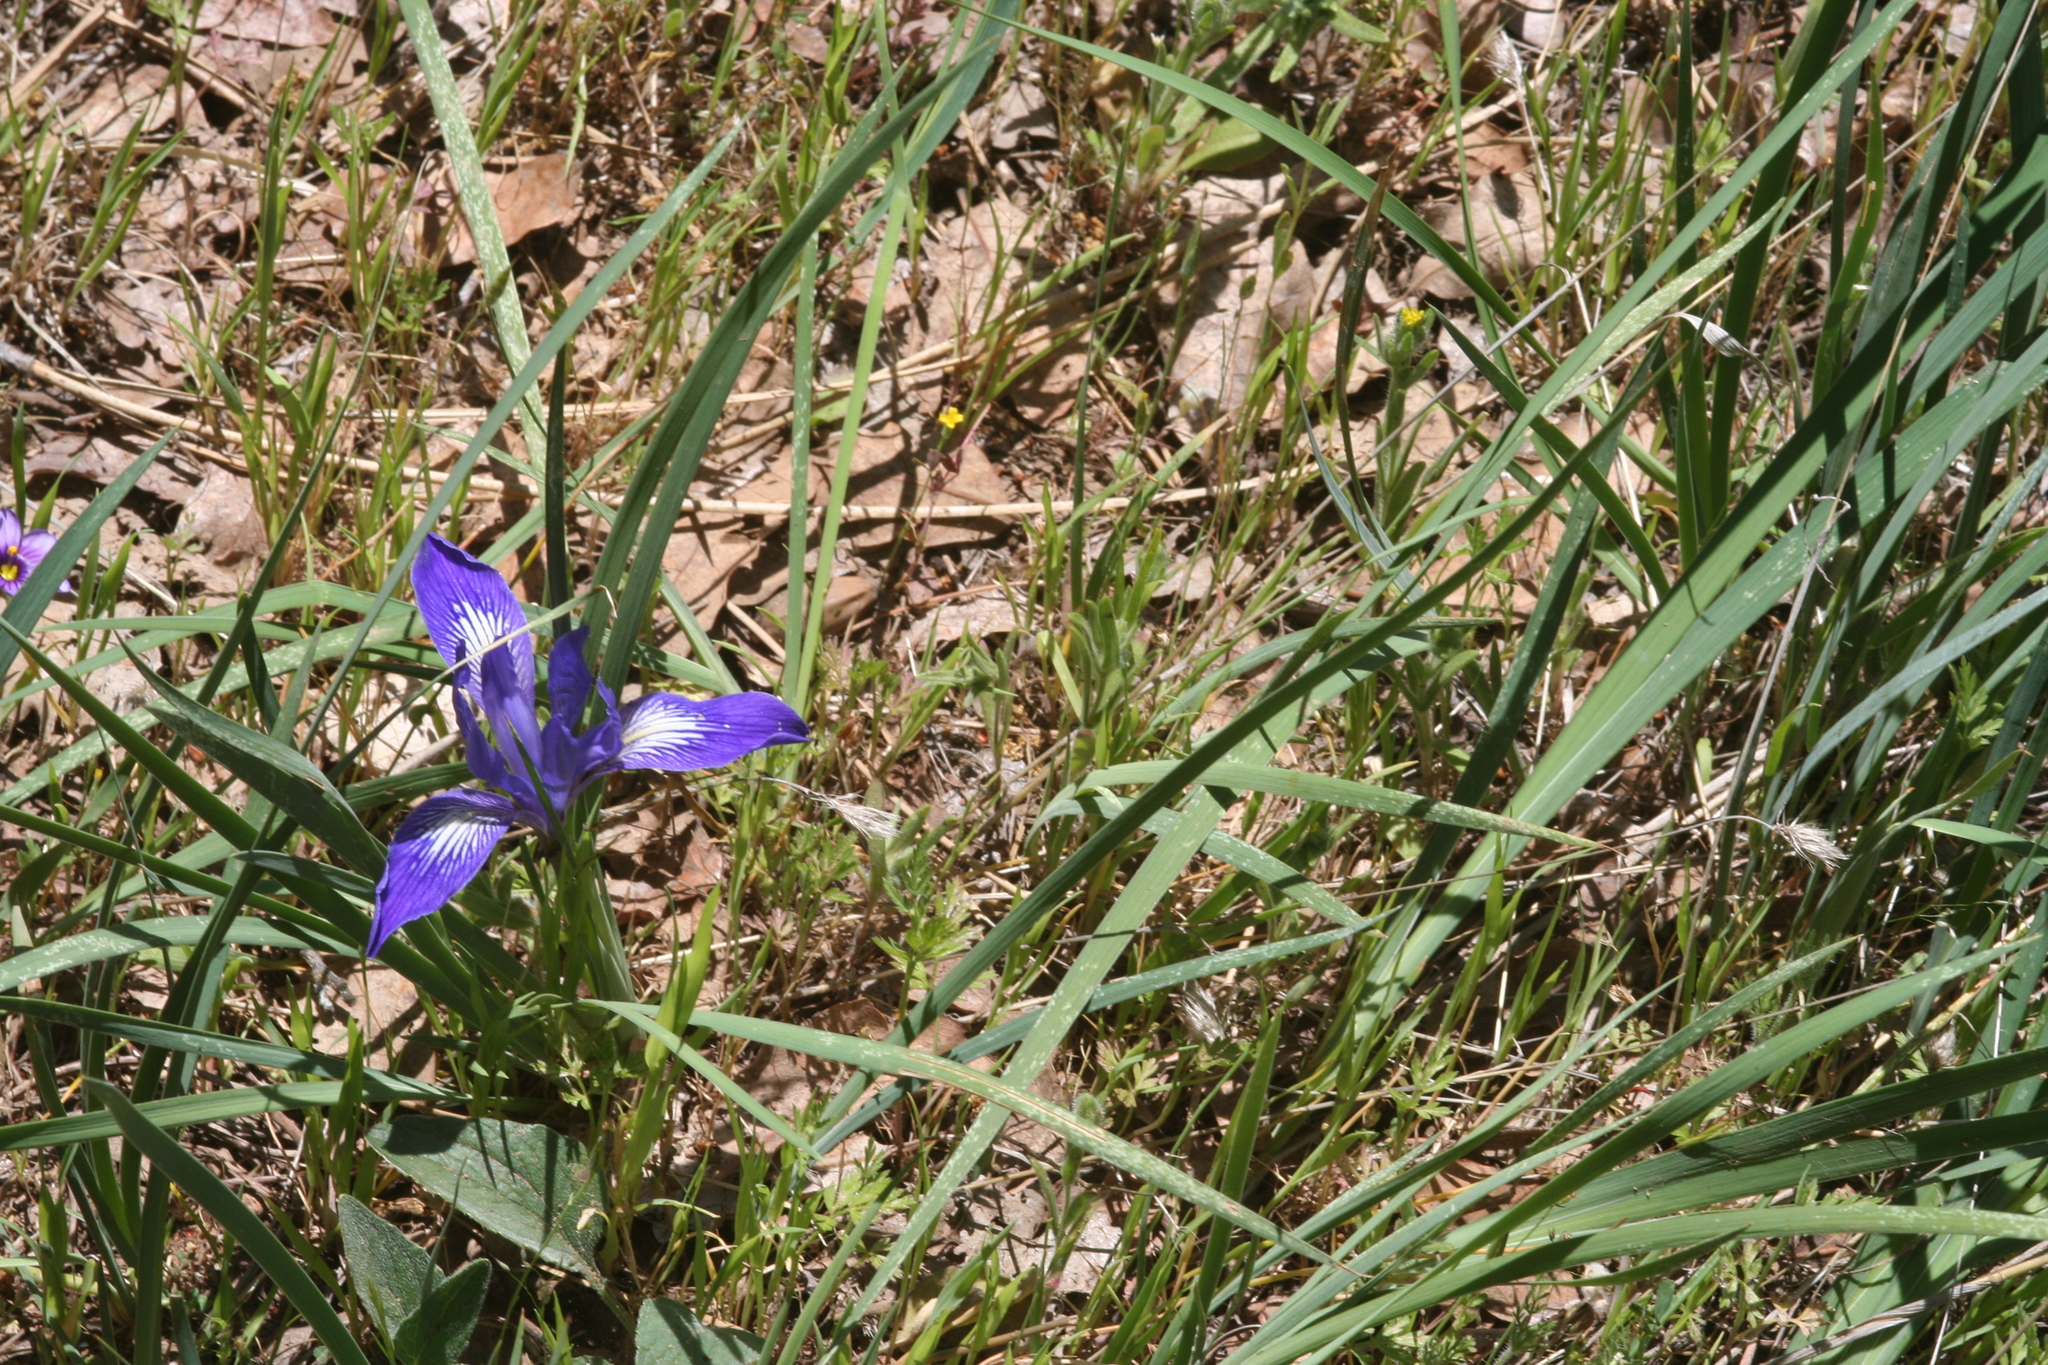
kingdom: Plantae
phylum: Tracheophyta
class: Liliopsida
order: Asparagales
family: Iridaceae
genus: Iris
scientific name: Iris macrosiphon
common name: Ground iris
